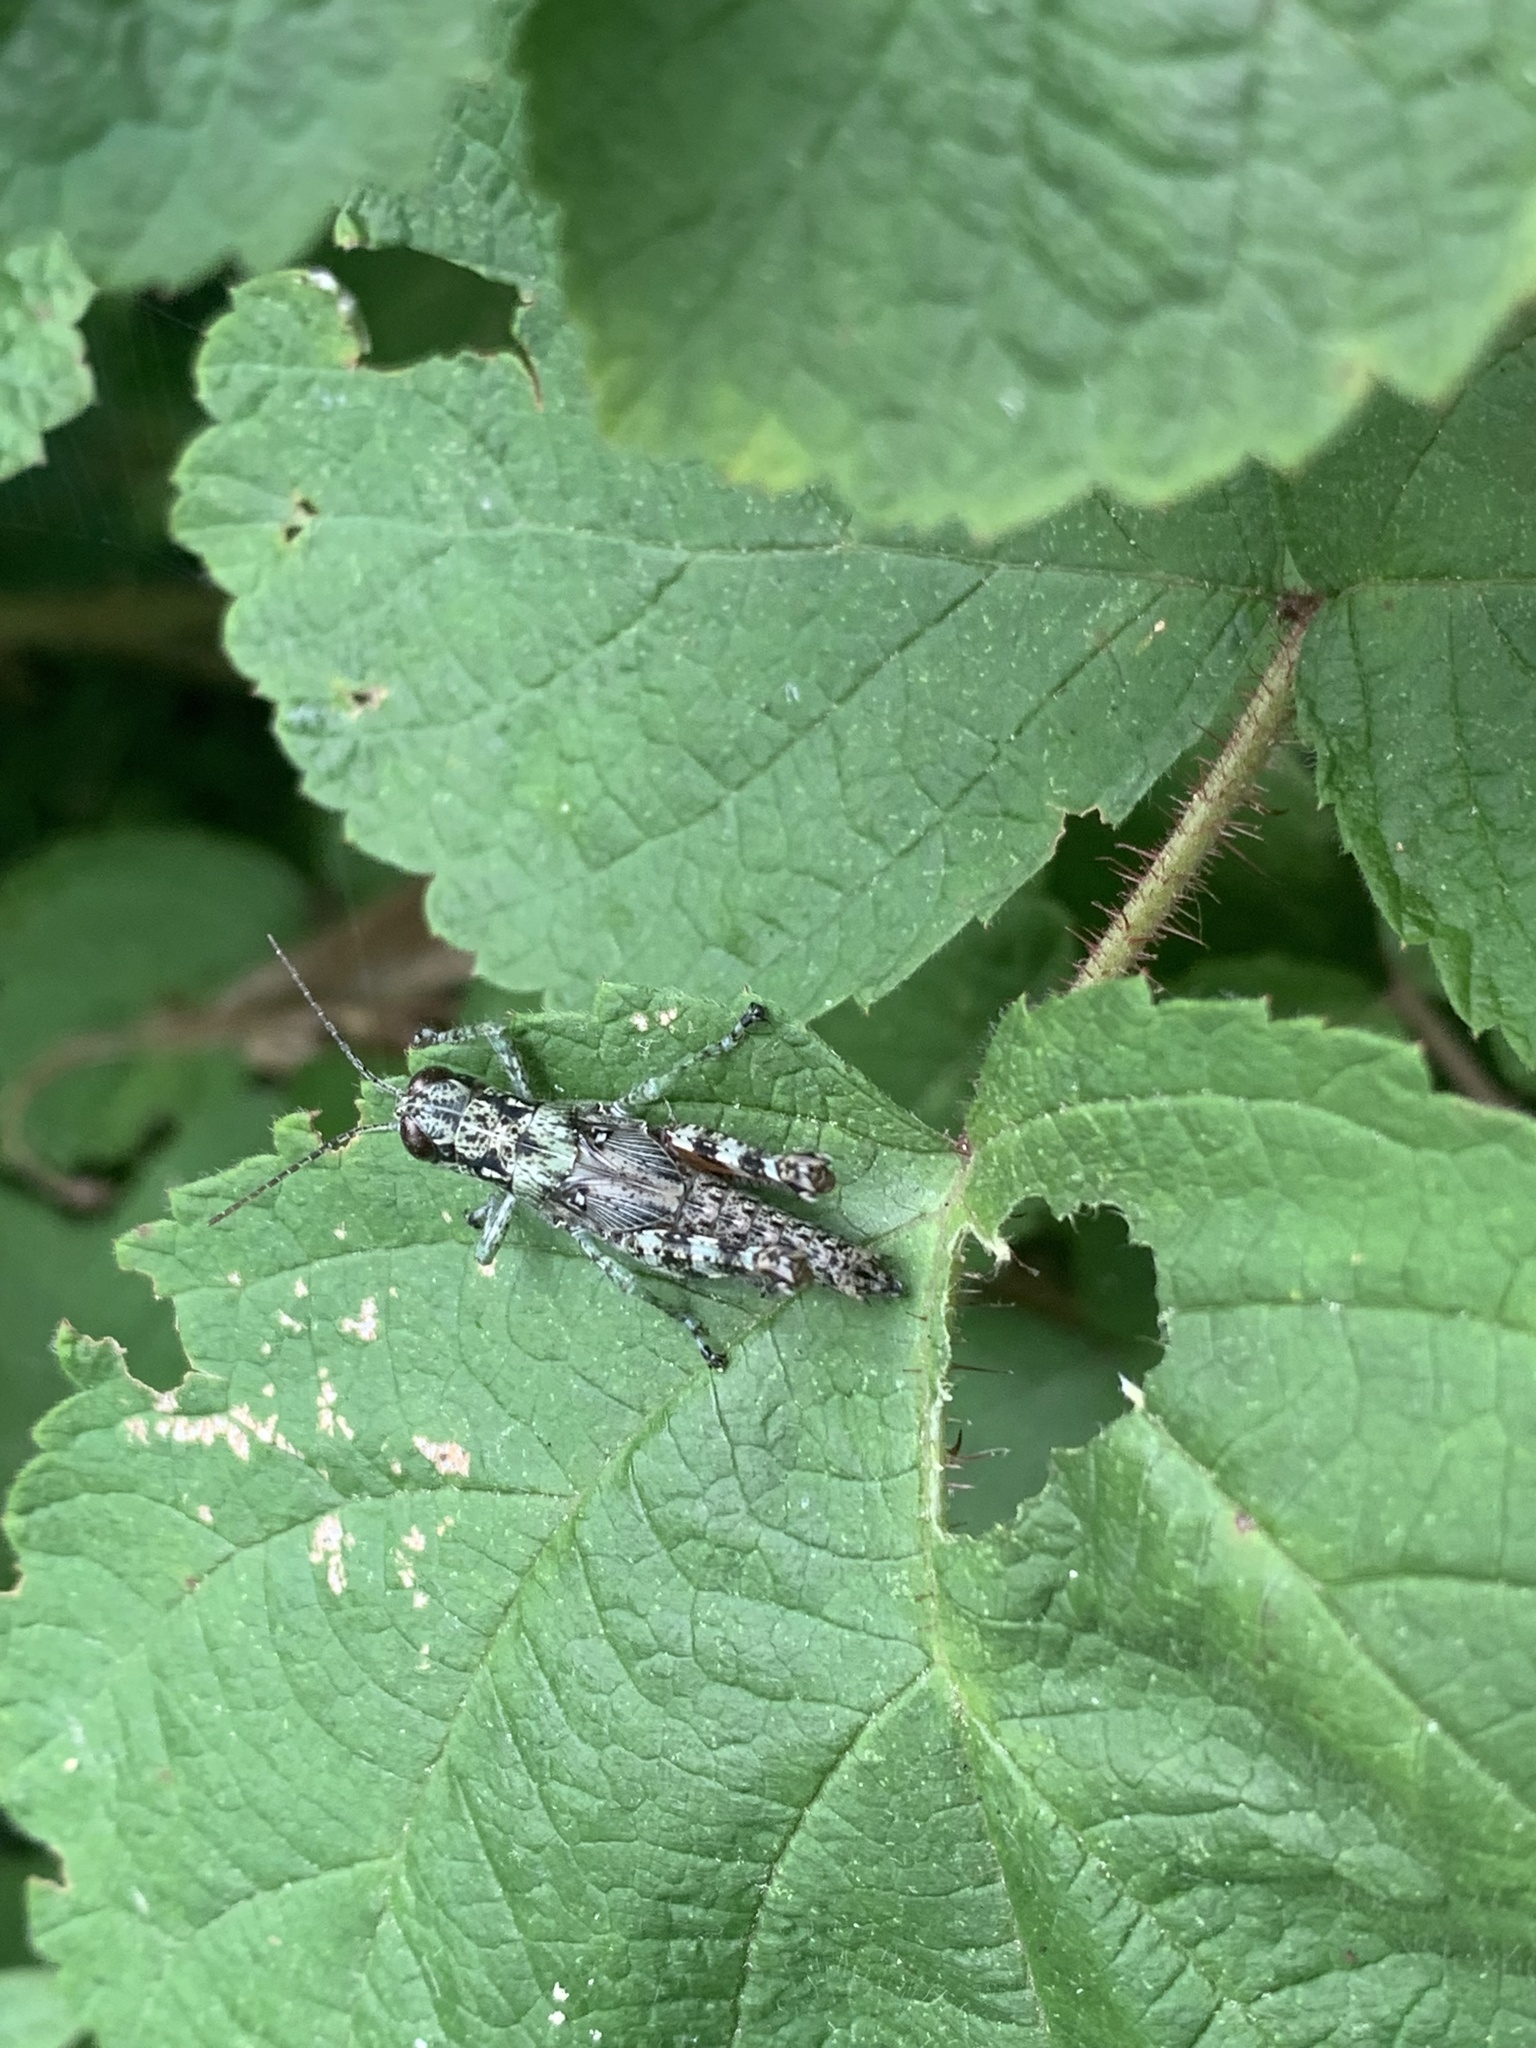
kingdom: Animalia
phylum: Arthropoda
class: Insecta
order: Orthoptera
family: Acrididae
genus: Melanoplus
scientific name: Melanoplus punctulatus
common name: Pine-tree spur-throat grasshopper
